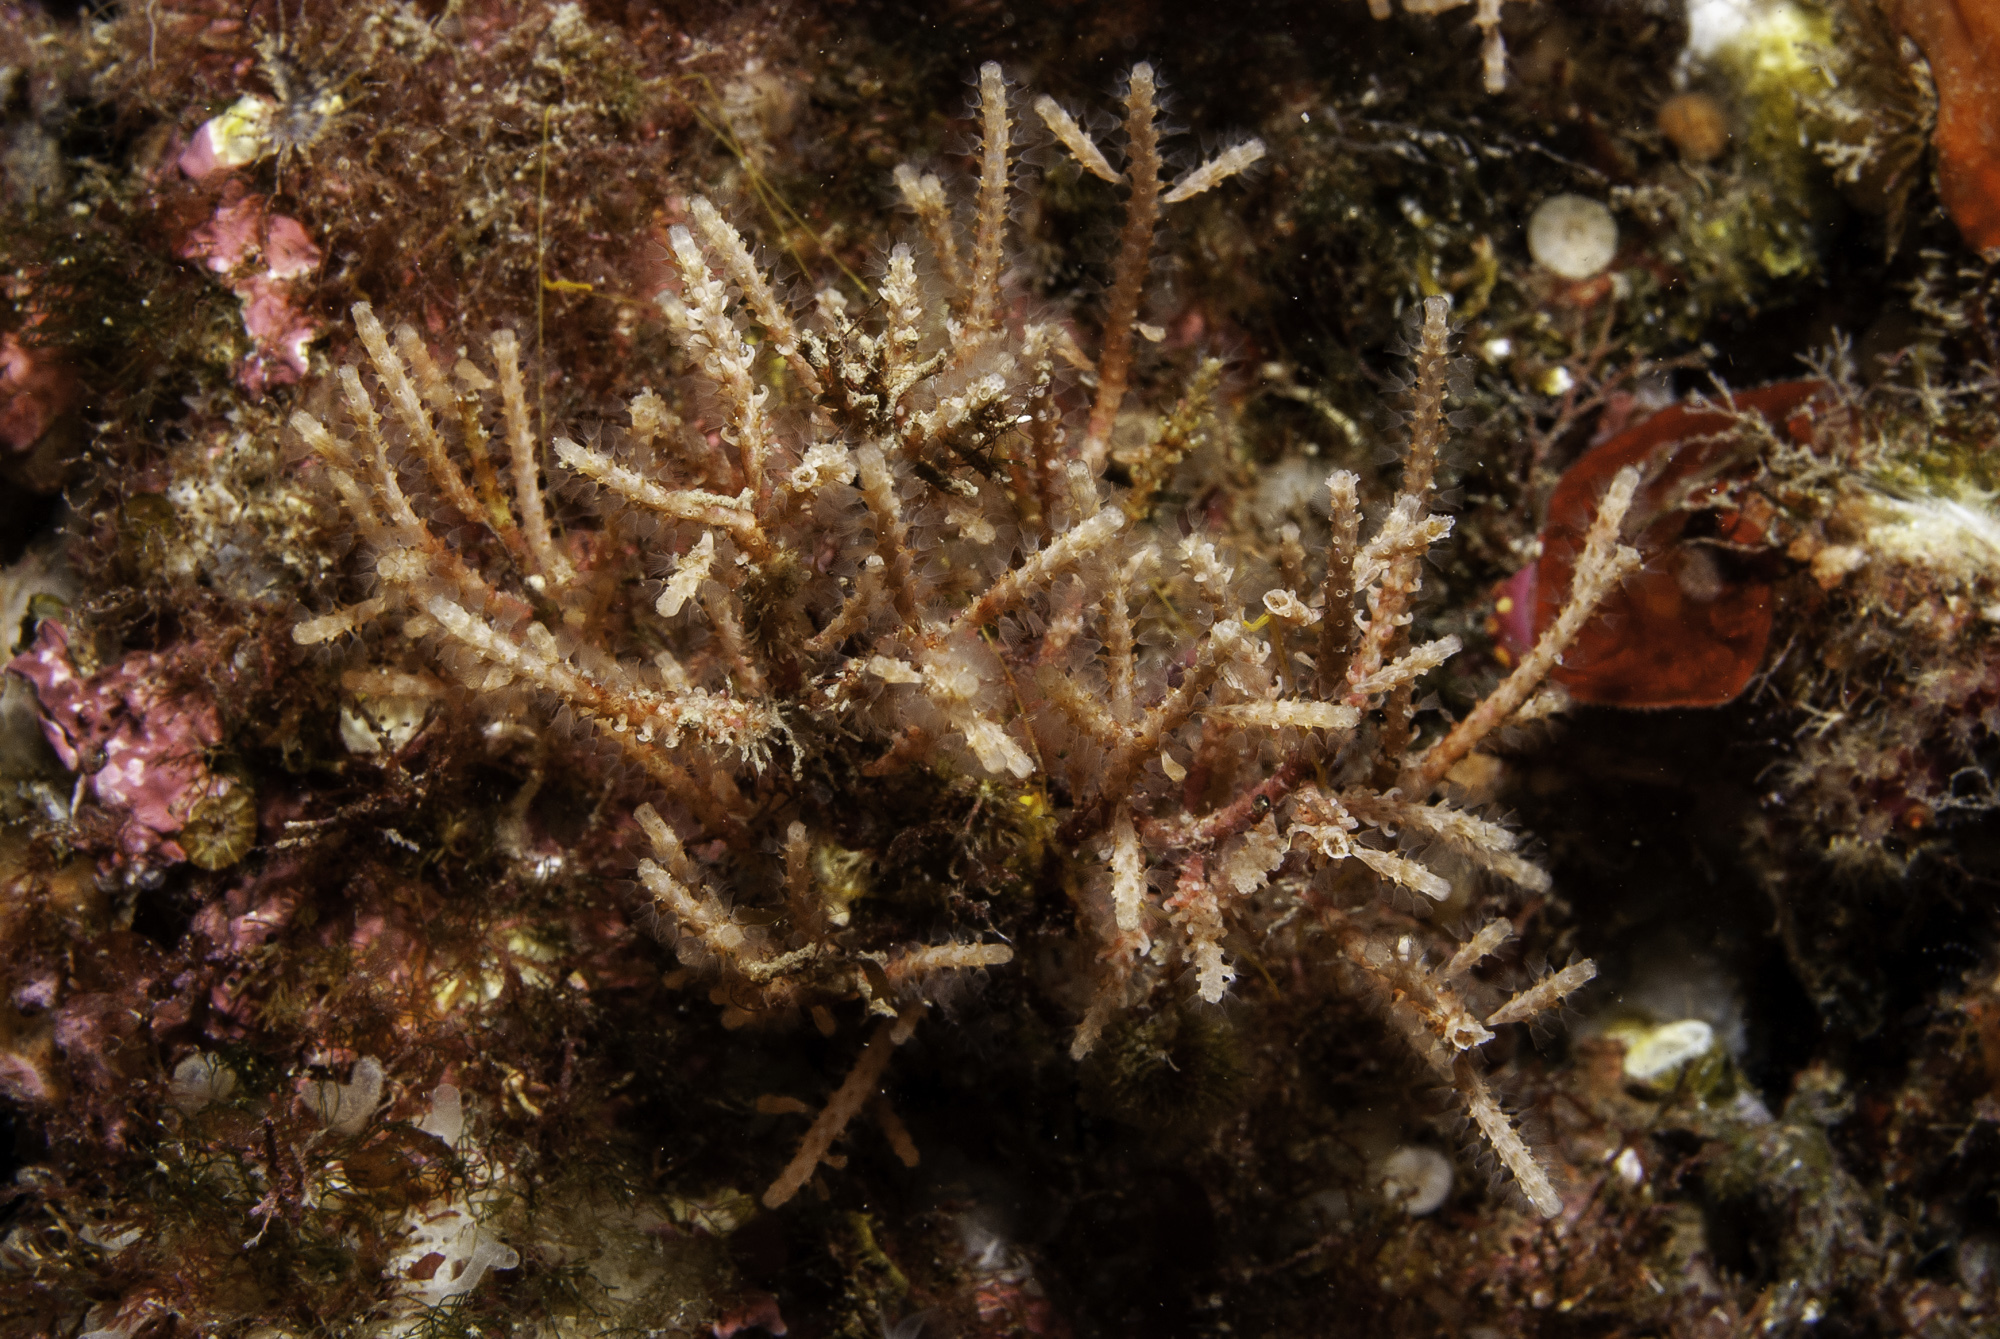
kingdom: Animalia
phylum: Bryozoa
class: Gymnolaemata
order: Cheilostomatida
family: Margarettidae
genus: Margaretta
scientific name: Margaretta cereoides
